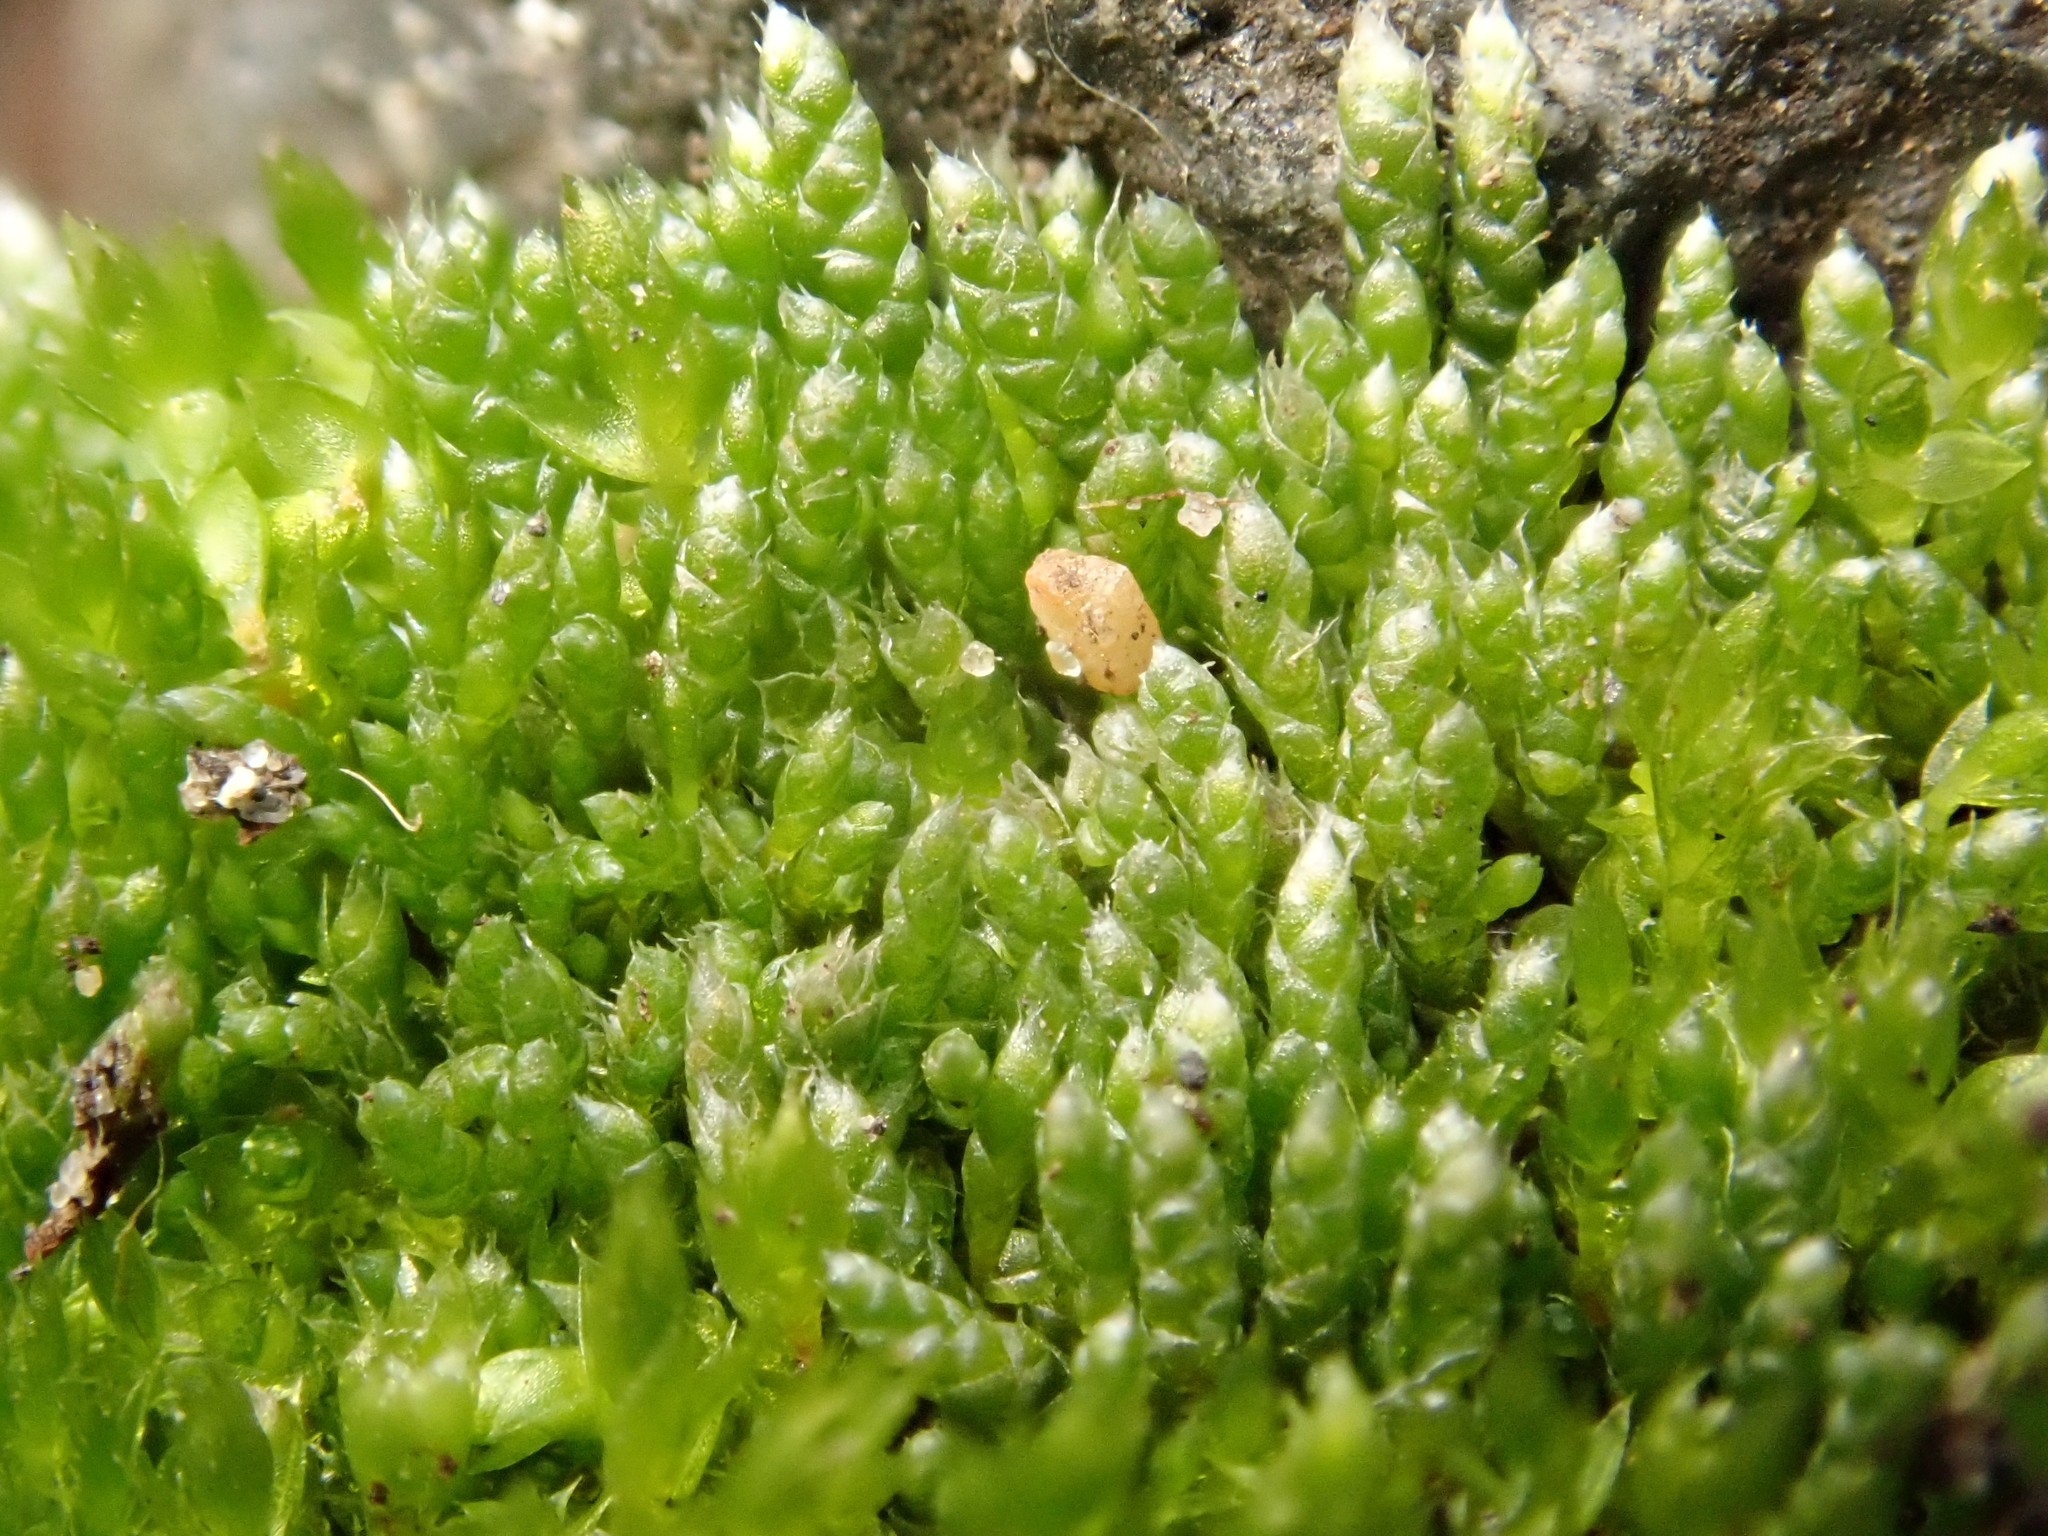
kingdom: Plantae
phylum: Bryophyta
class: Bryopsida
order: Bryales
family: Bryaceae
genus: Bryum
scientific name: Bryum argenteum
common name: Silver-moss
